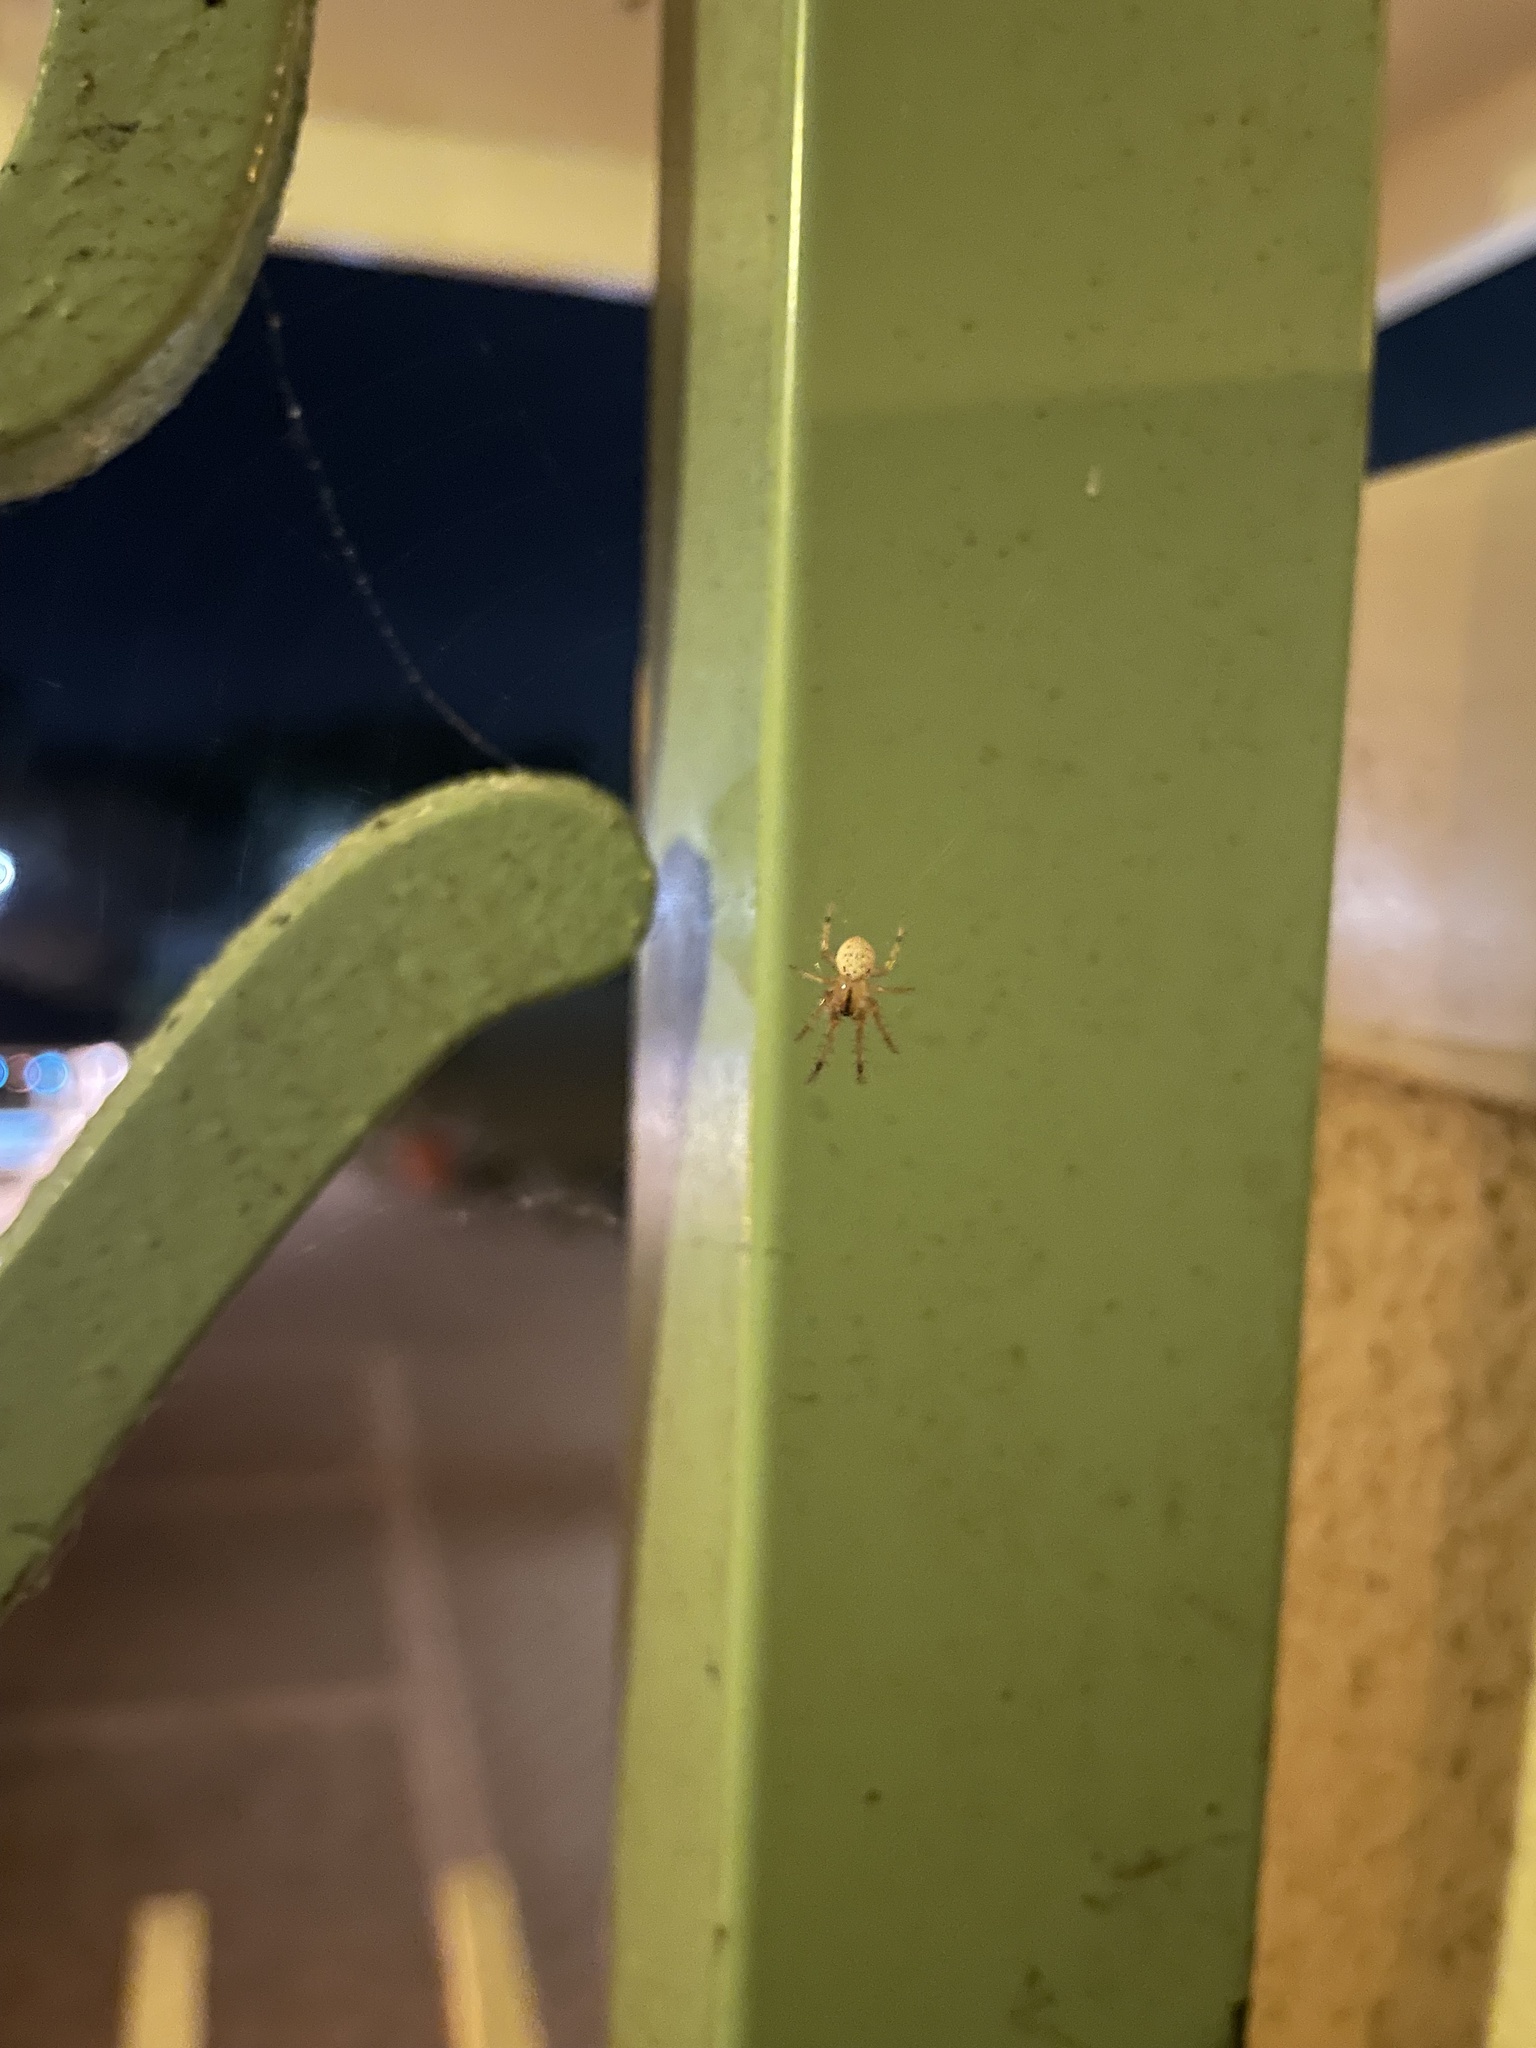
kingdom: Animalia
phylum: Arthropoda
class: Arachnida
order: Araneae
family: Araneidae
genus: Metazygia
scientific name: Metazygia zilloides
